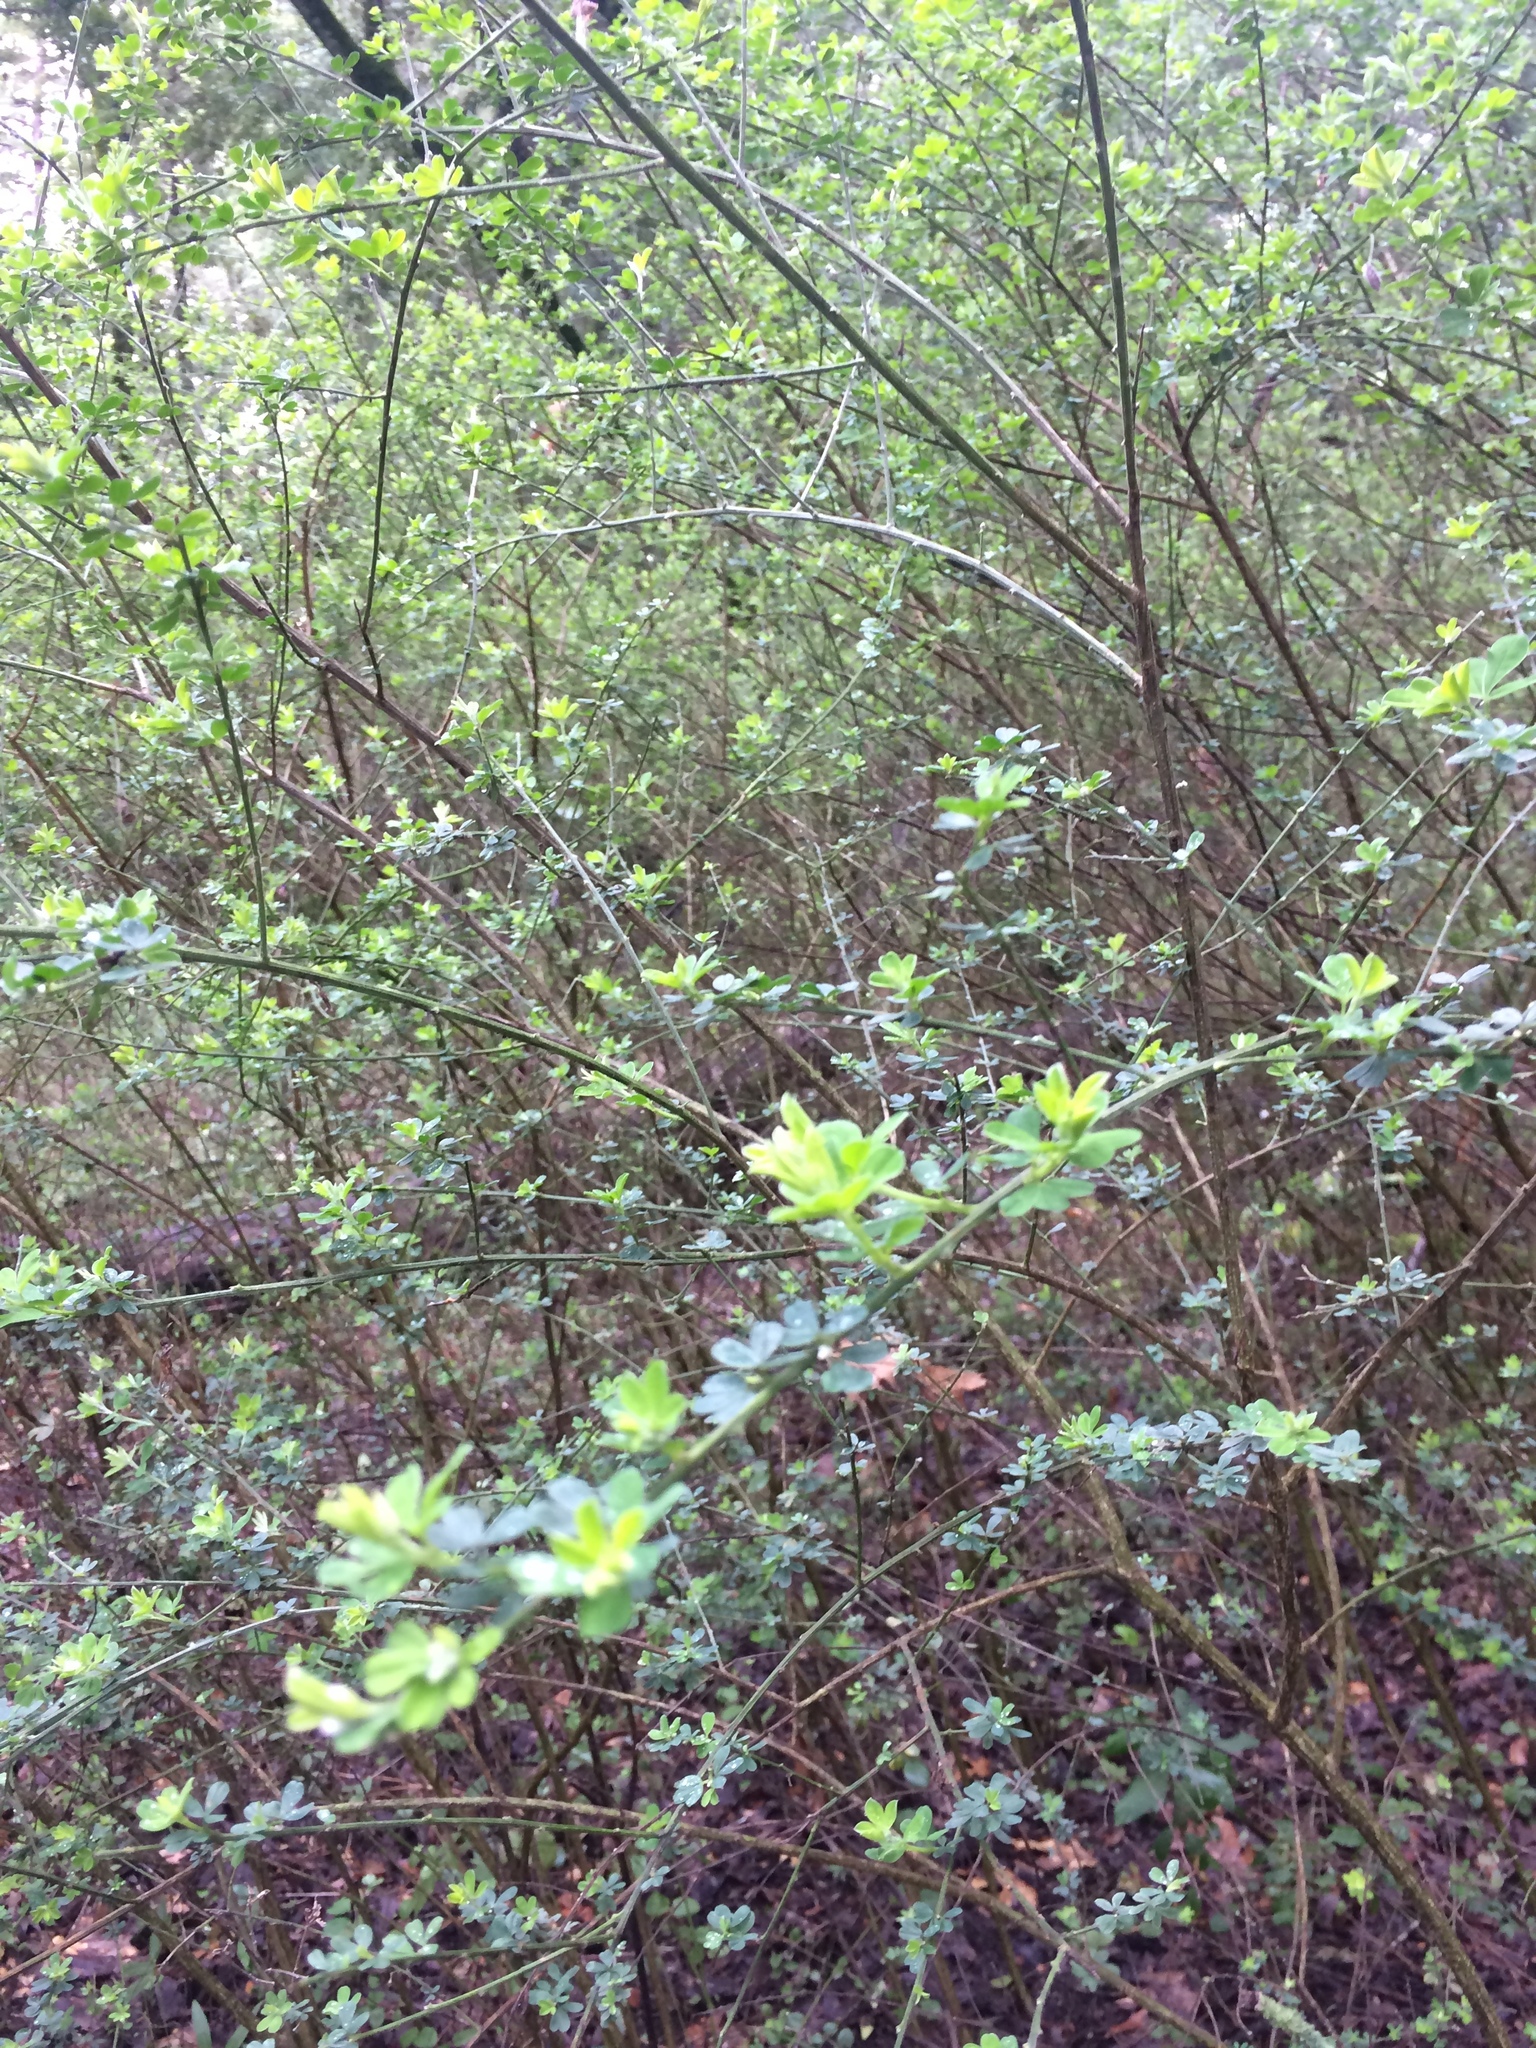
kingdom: Plantae
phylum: Tracheophyta
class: Magnoliopsida
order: Fabales
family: Fabaceae
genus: Genista
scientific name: Genista monspessulana
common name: Montpellier broom
